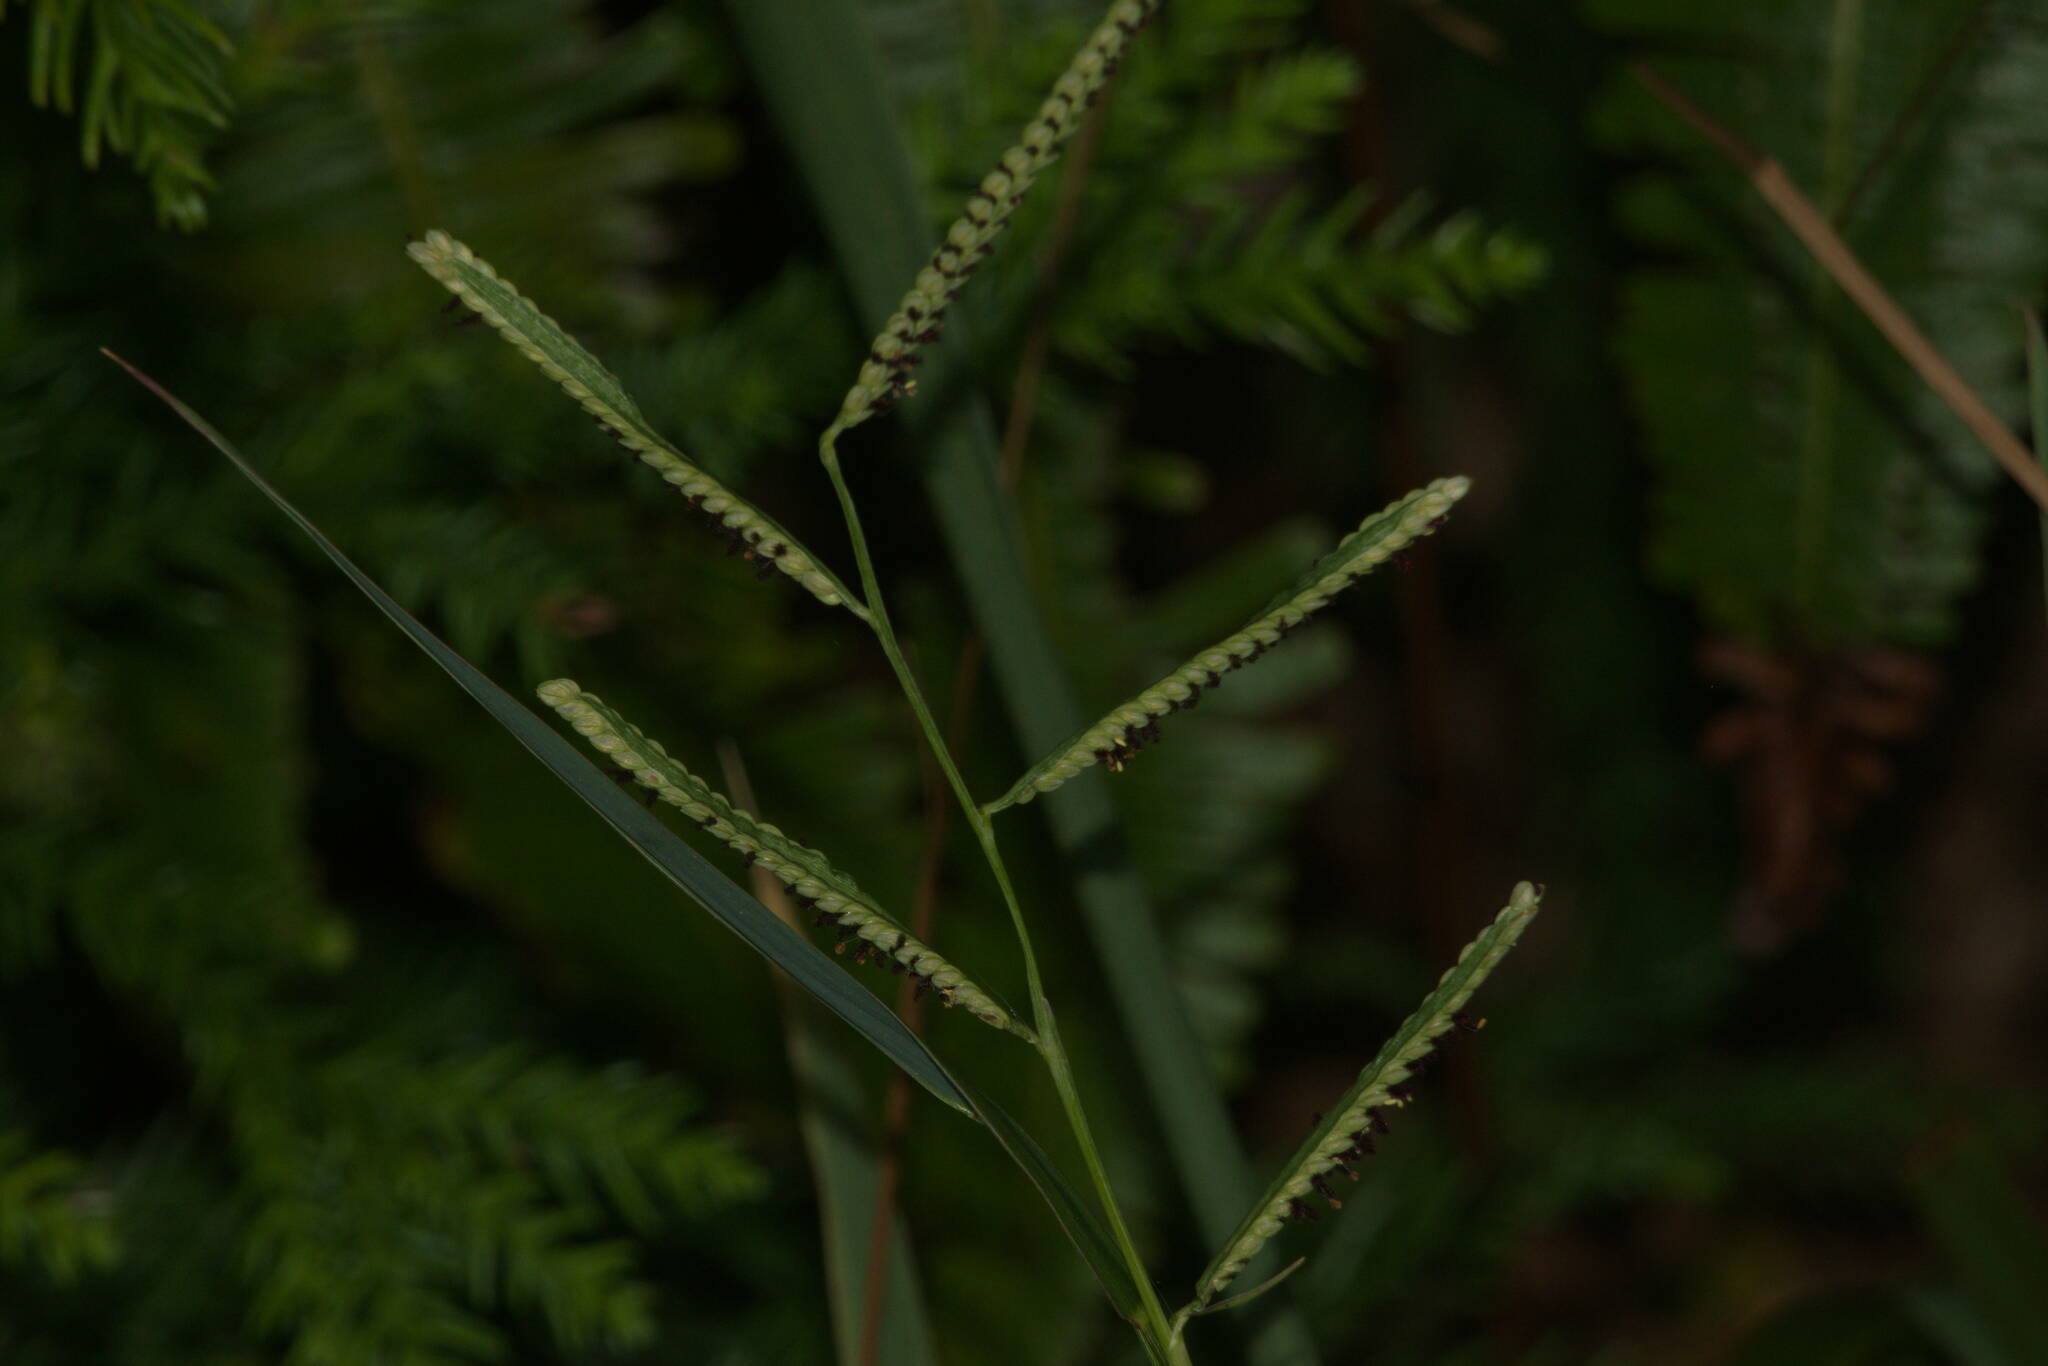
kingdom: Plantae
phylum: Tracheophyta
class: Liliopsida
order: Poales
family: Poaceae
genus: Paspalum
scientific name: Paspalum scrobiculatum
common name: Kodo millet
